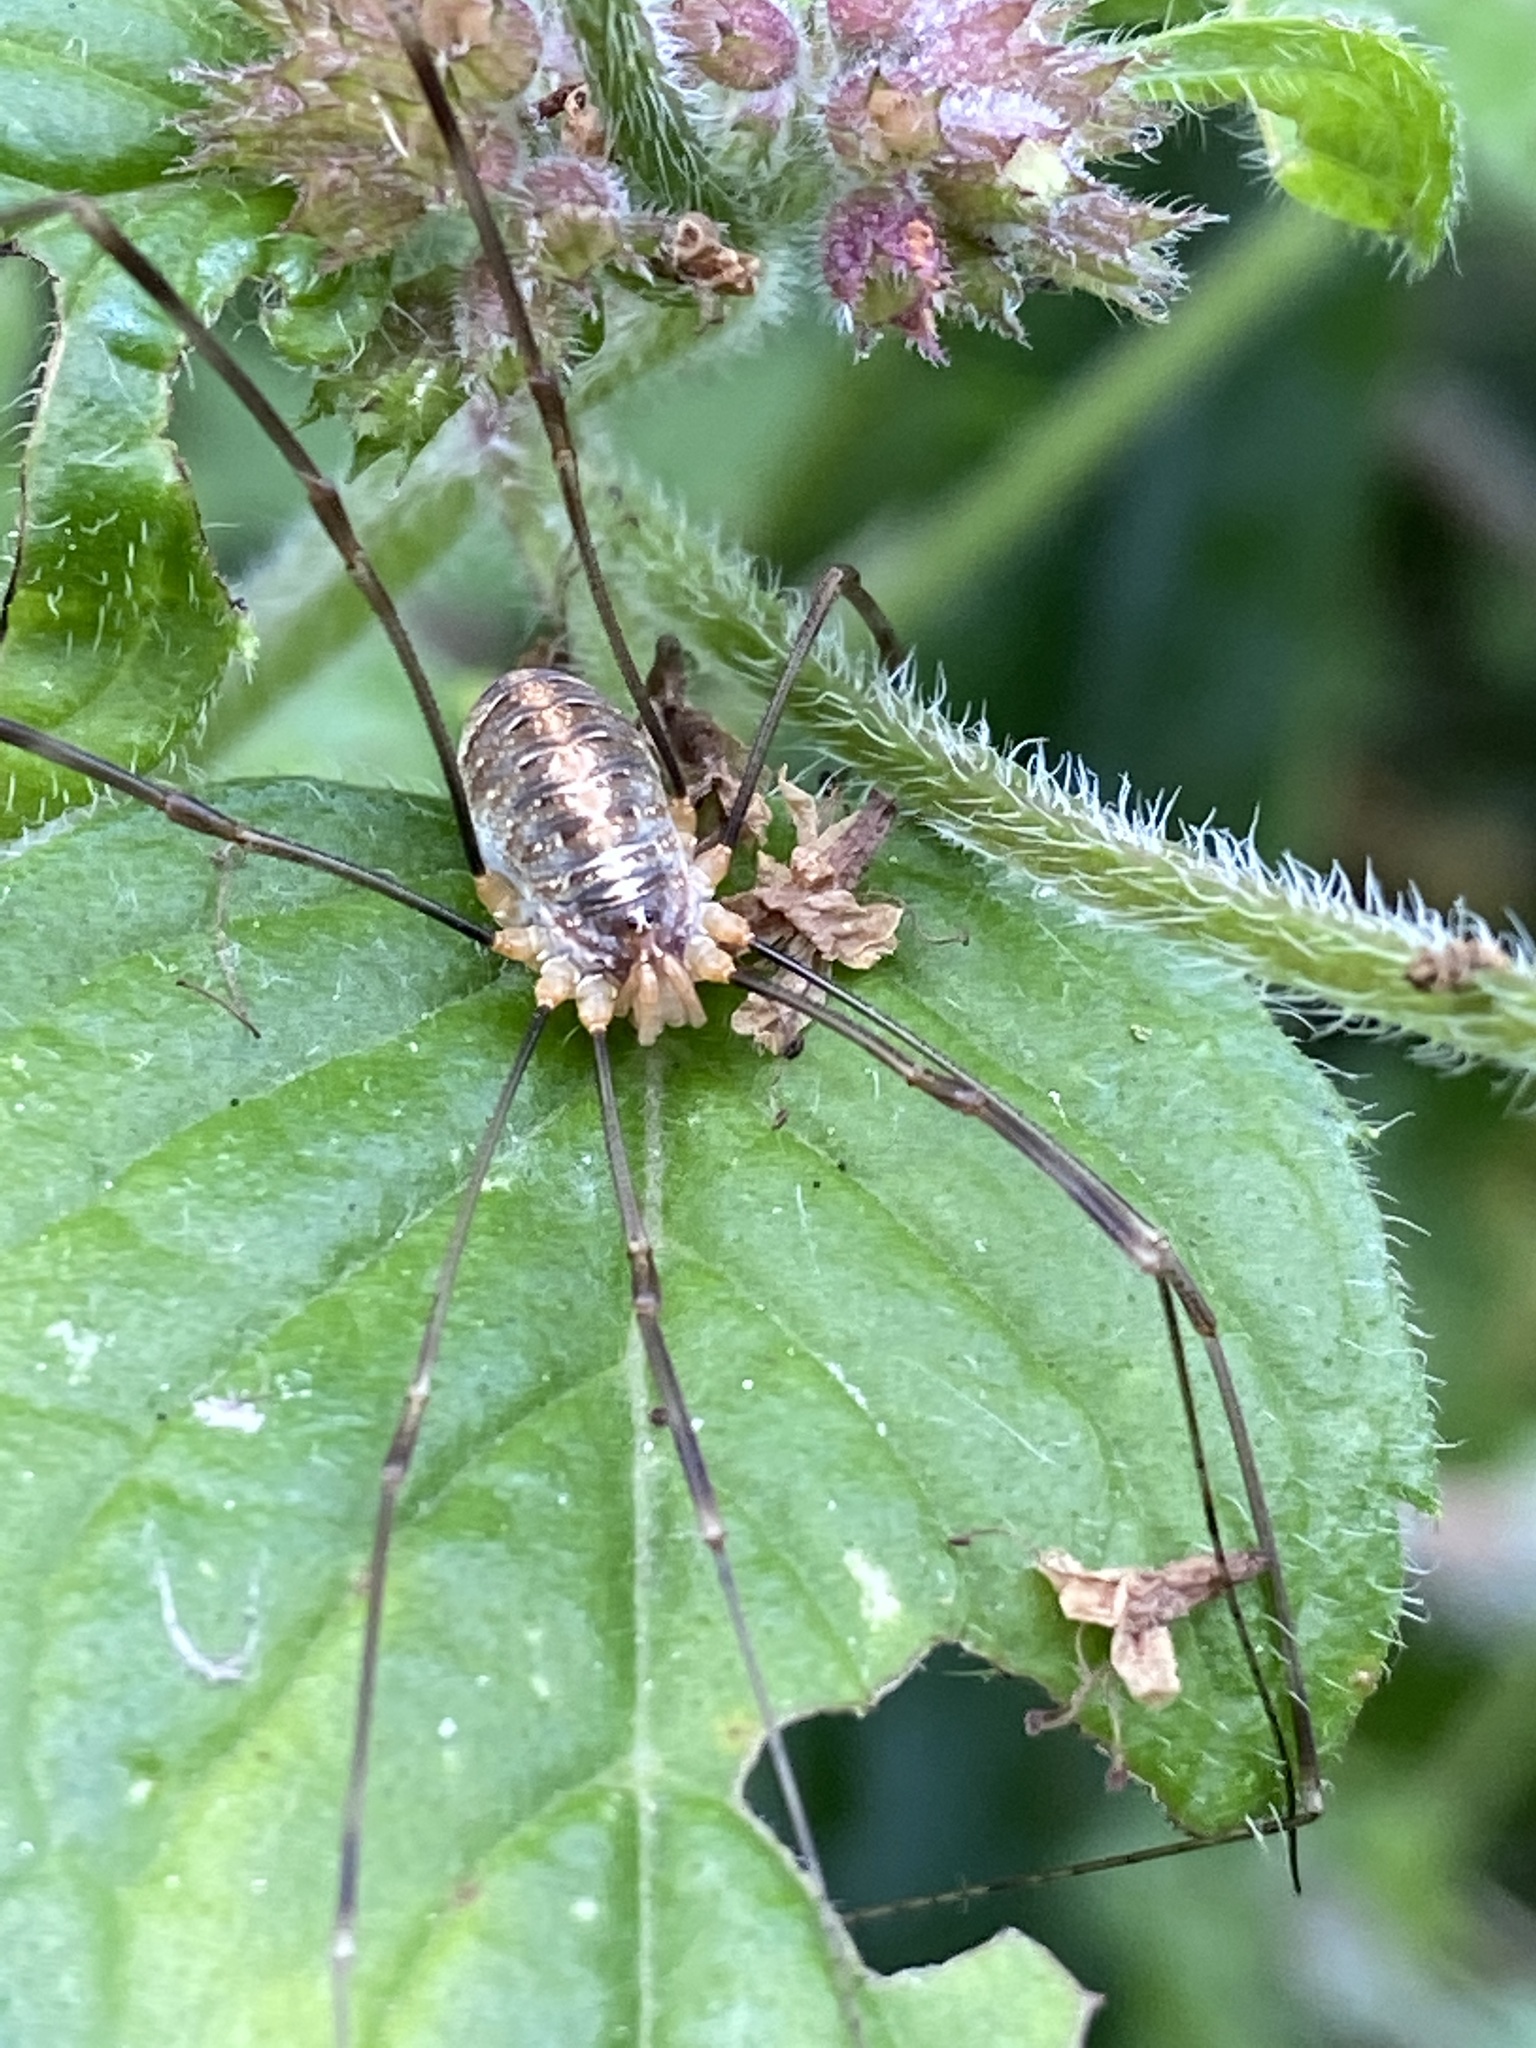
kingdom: Animalia
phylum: Arthropoda
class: Arachnida
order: Opiliones
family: Phalangiidae
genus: Opilio
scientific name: Opilio canestrinii
